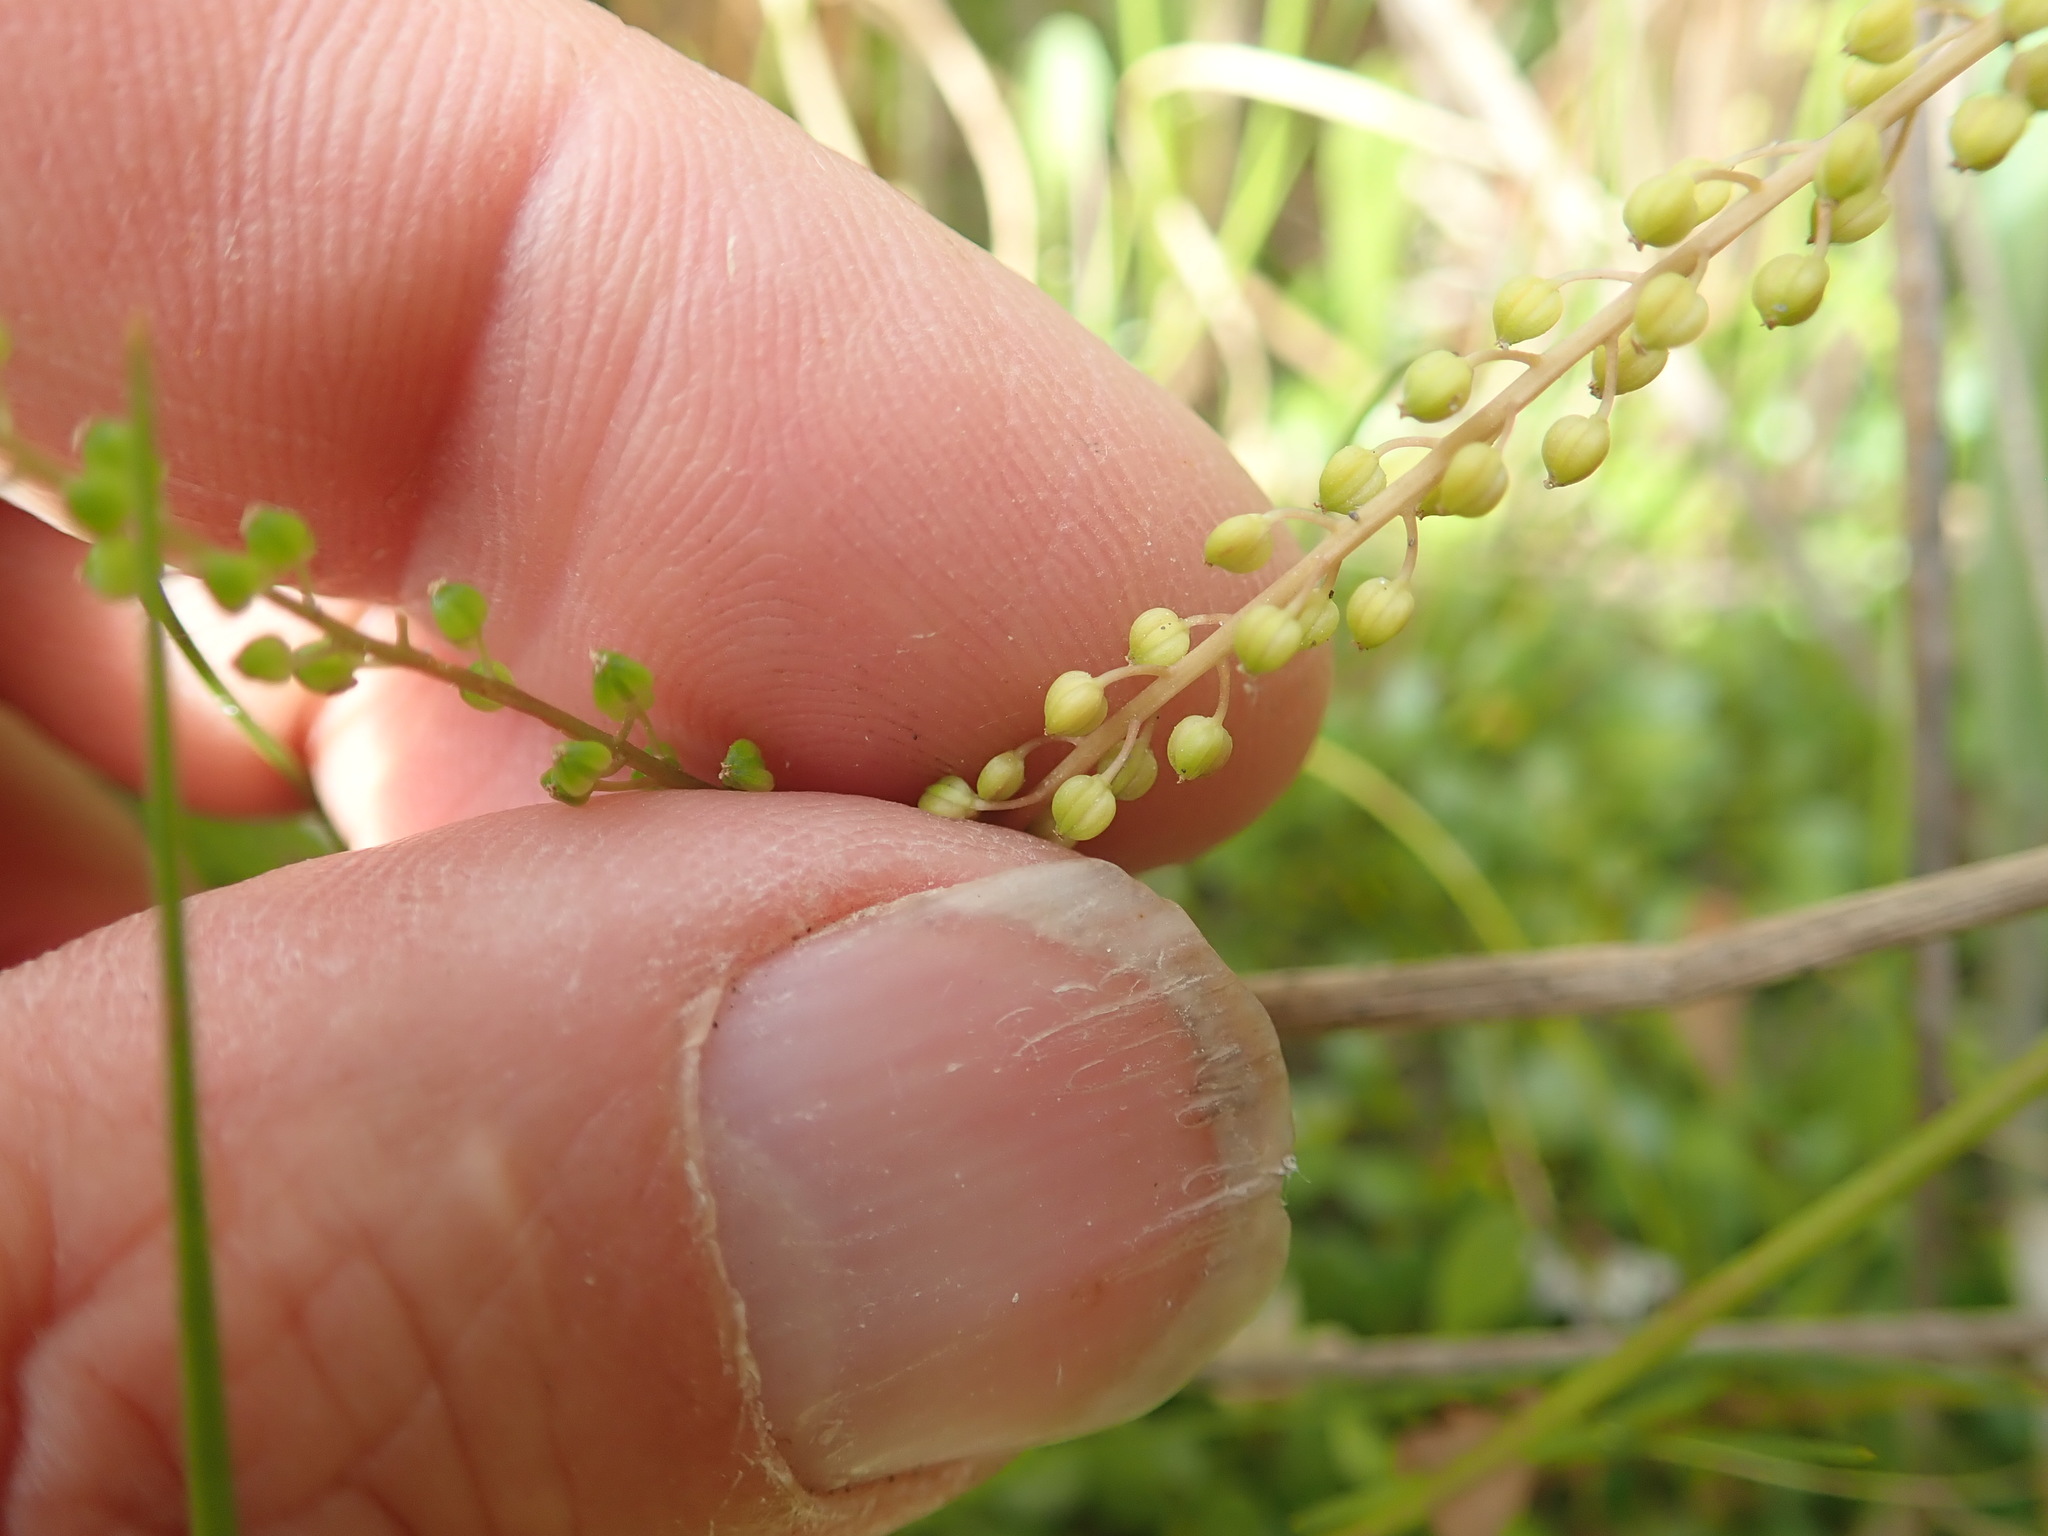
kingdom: Plantae
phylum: Tracheophyta
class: Liliopsida
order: Alismatales
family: Juncaginaceae
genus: Triglochin
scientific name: Triglochin striata
